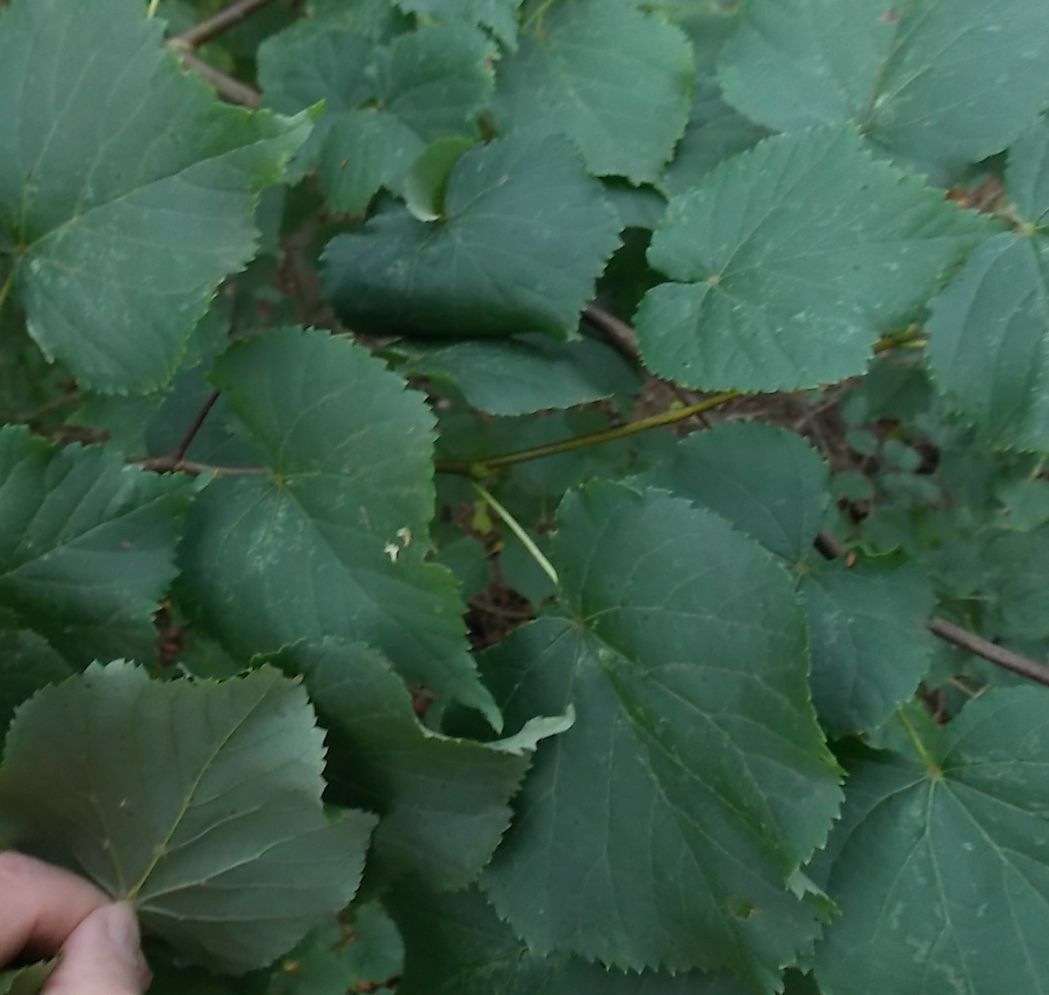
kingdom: Plantae
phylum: Tracheophyta
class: Magnoliopsida
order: Malvales
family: Malvaceae
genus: Tilia
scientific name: Tilia cordata
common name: Small-leaved lime
